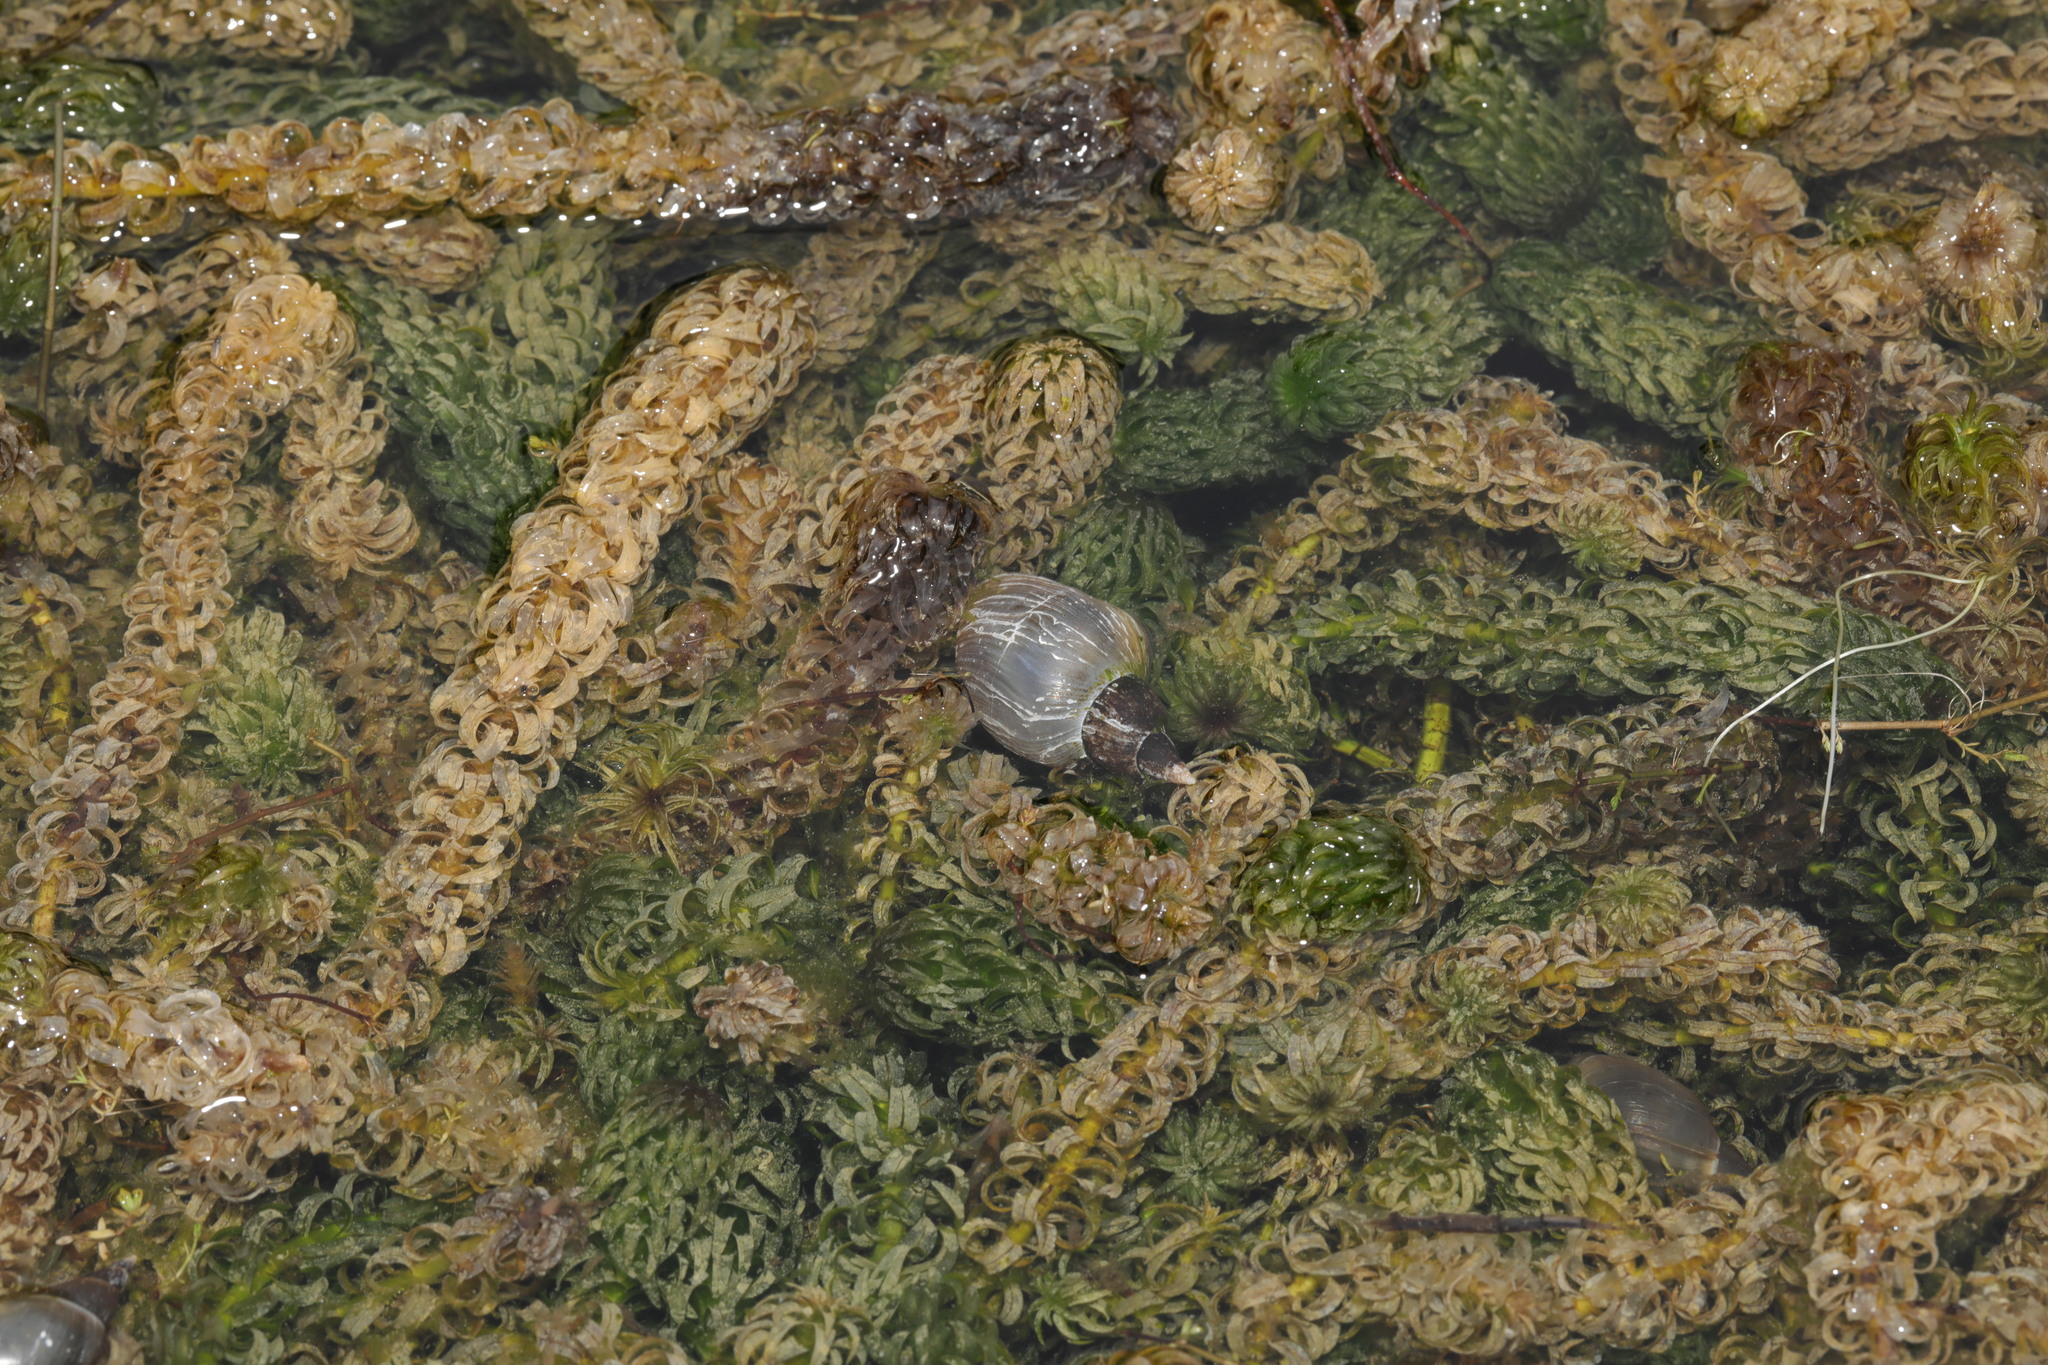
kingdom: Animalia
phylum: Mollusca
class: Gastropoda
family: Lymnaeidae
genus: Lymnaea
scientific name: Lymnaea stagnalis
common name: Great pond snail
